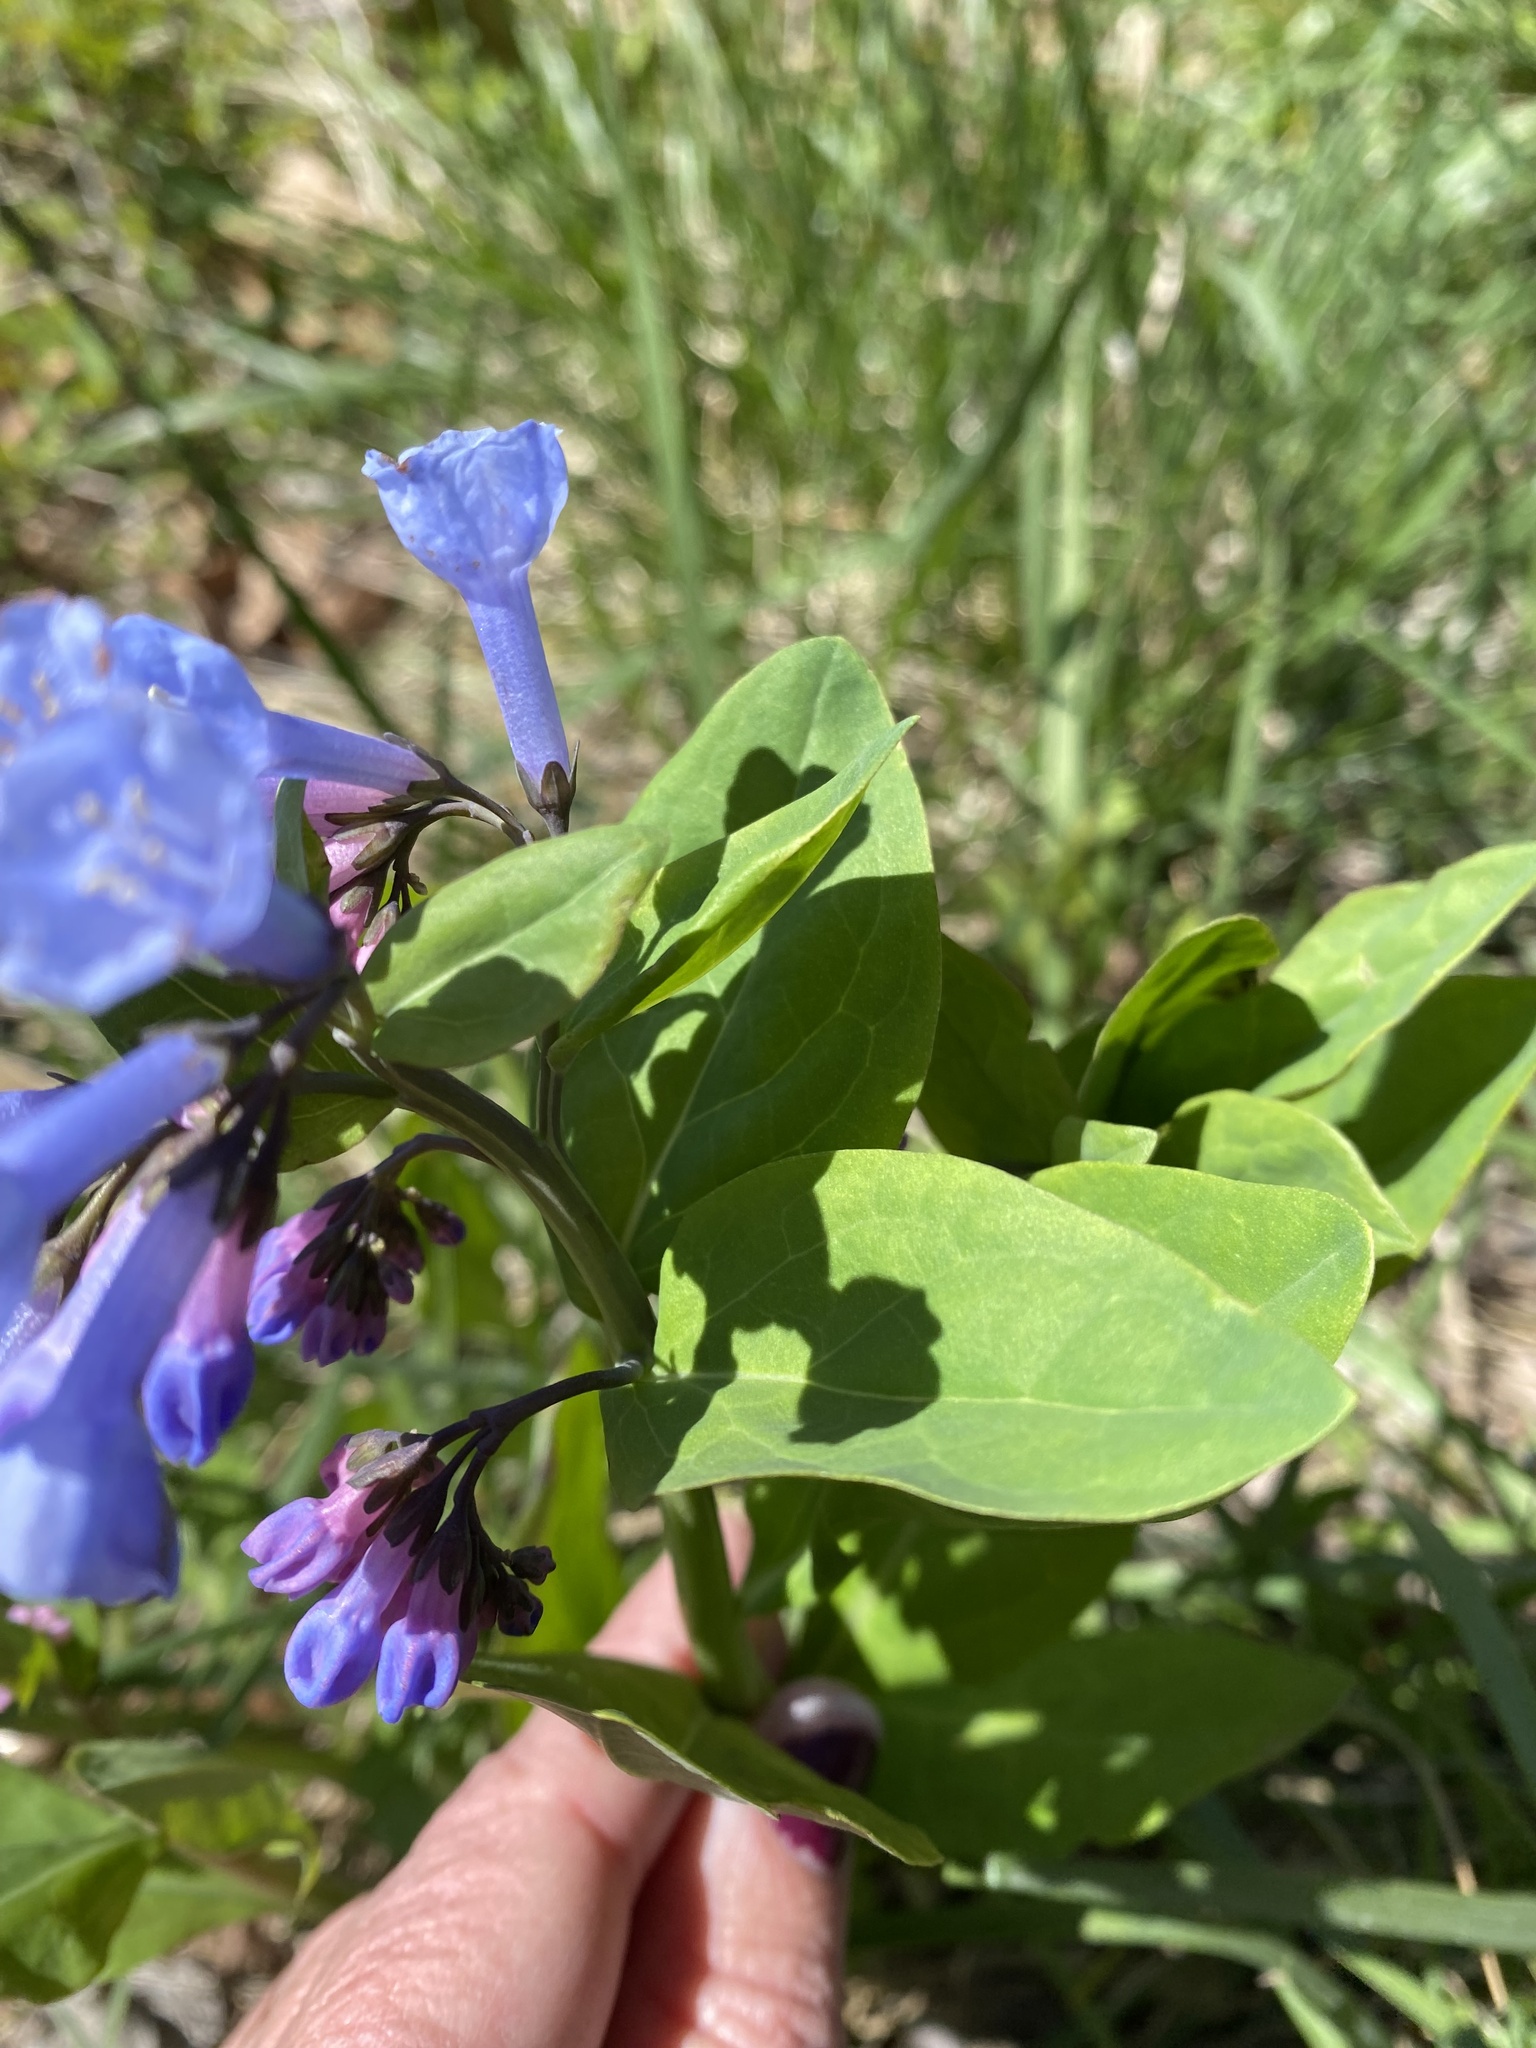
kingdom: Plantae
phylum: Tracheophyta
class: Magnoliopsida
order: Boraginales
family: Boraginaceae
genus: Mertensia
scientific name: Mertensia virginica
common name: Virginia bluebells
